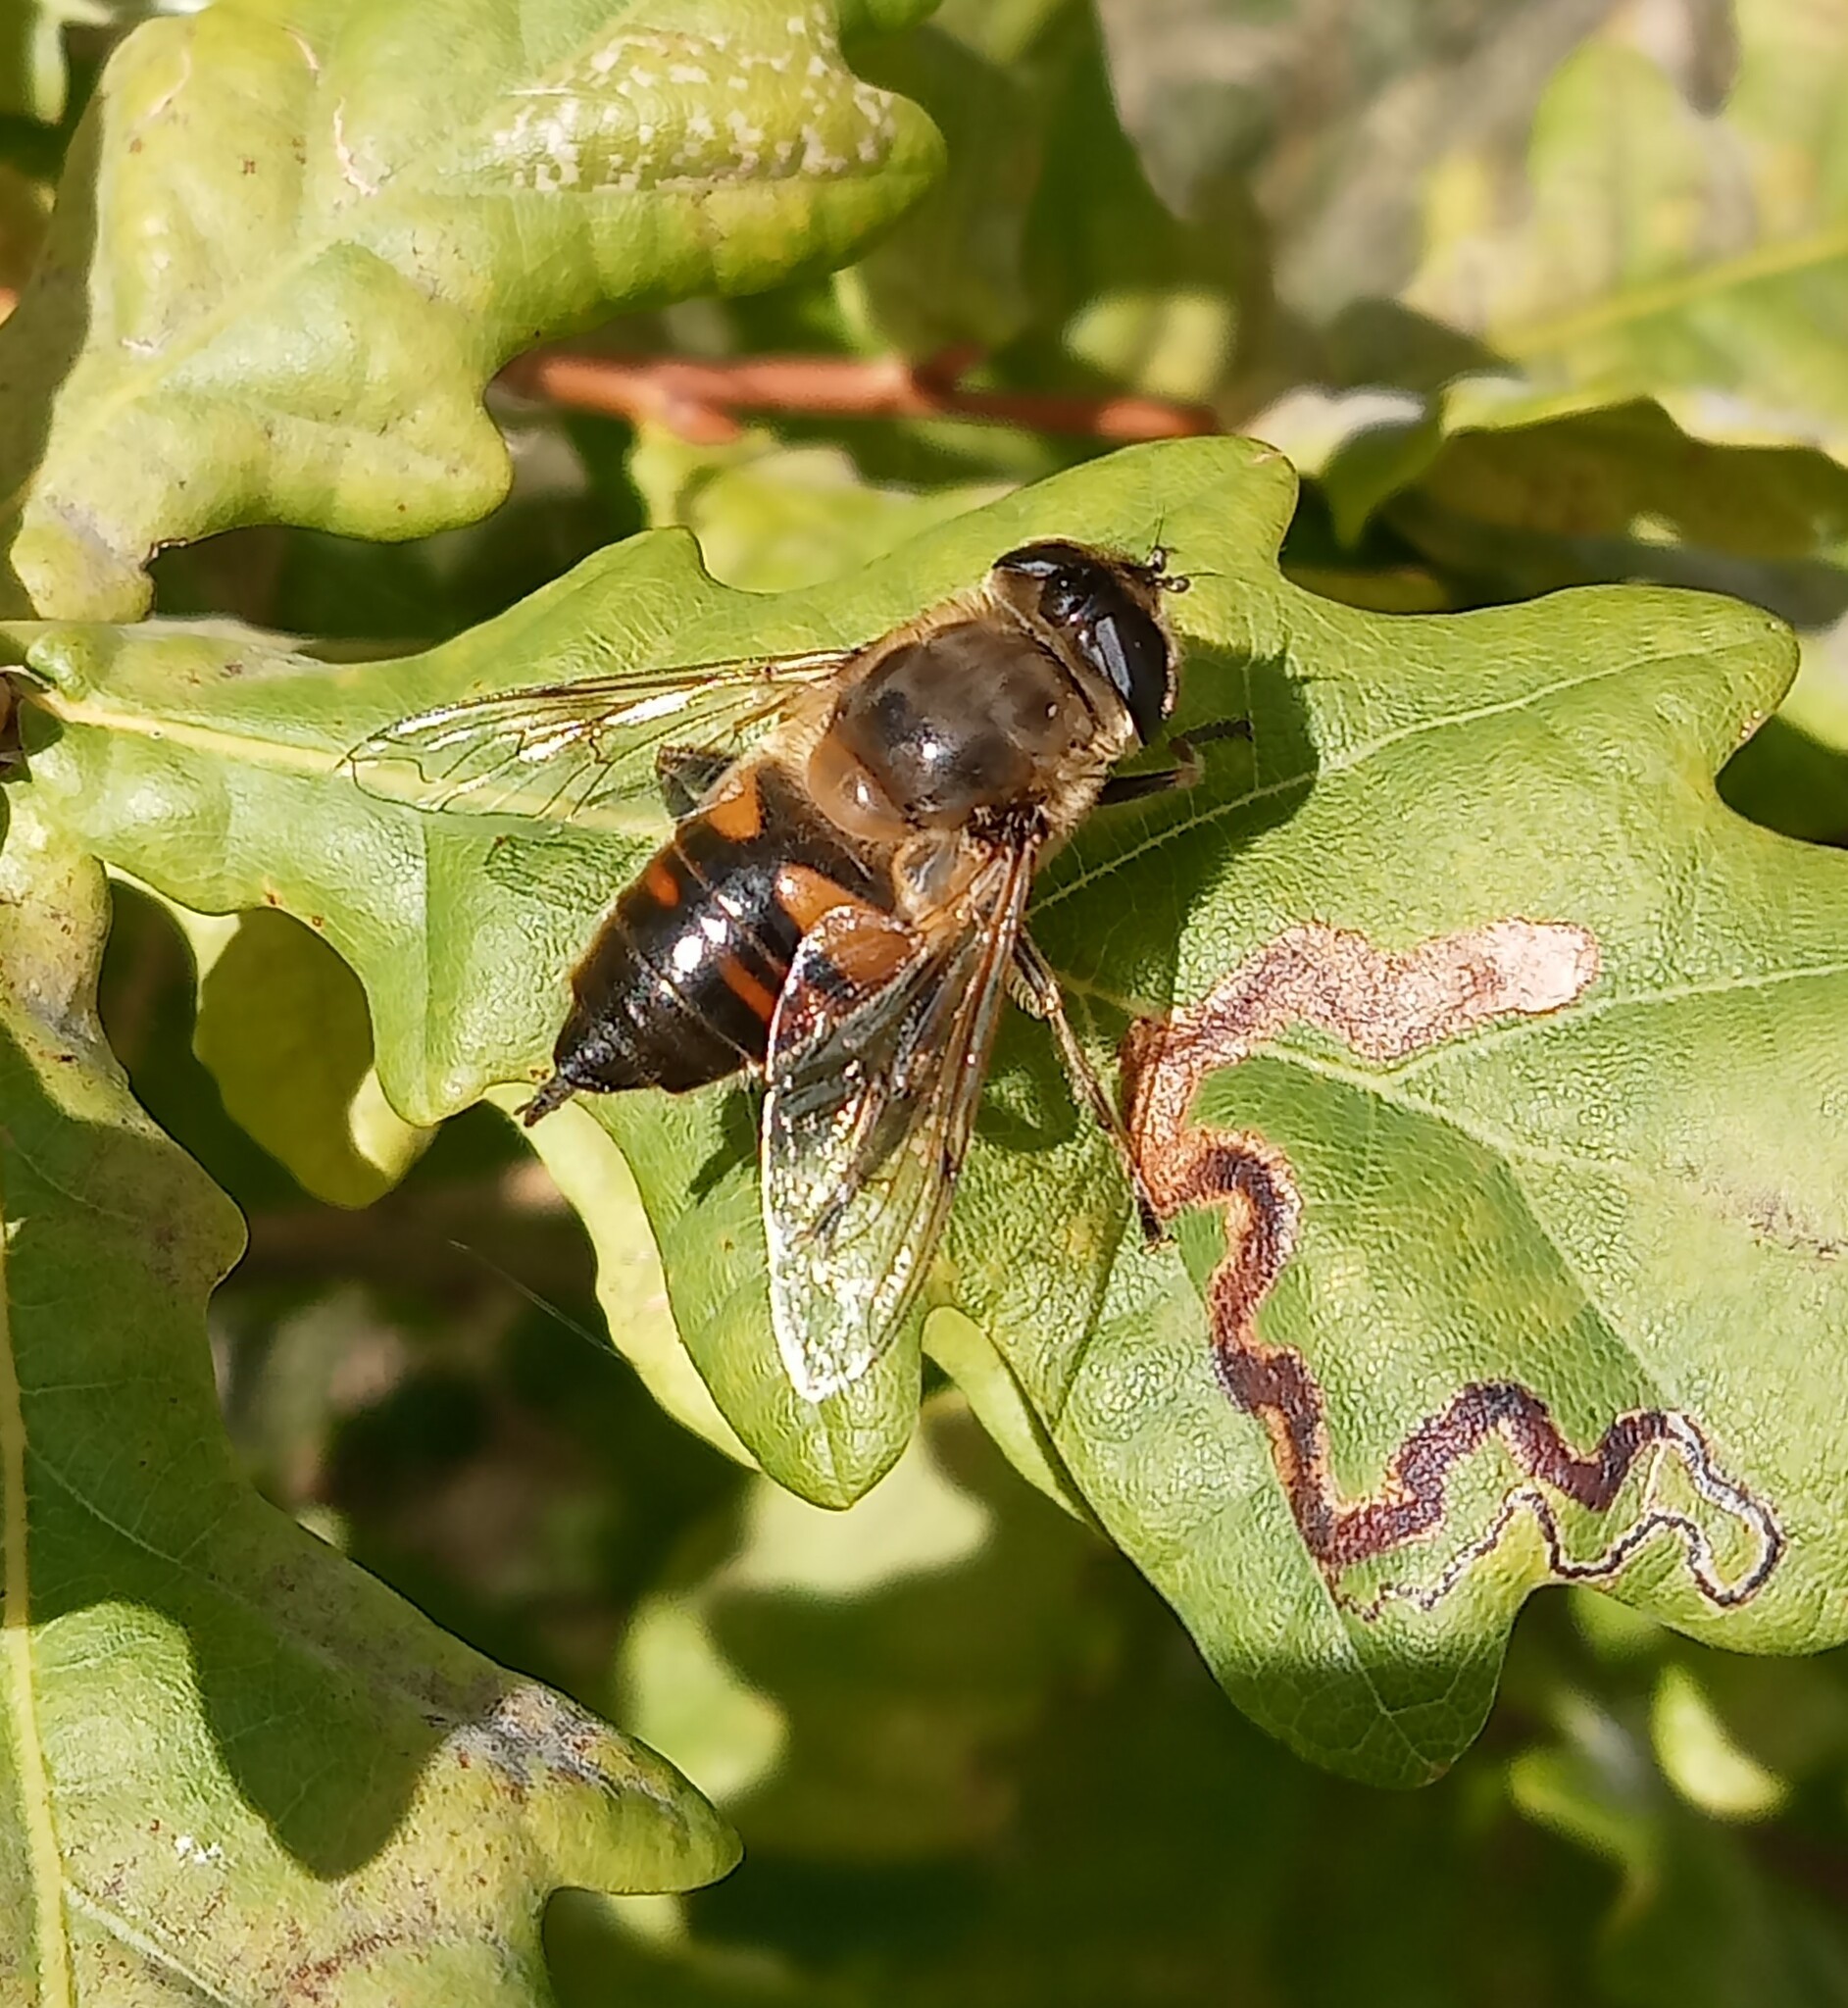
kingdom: Animalia
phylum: Arthropoda
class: Insecta
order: Diptera
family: Syrphidae
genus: Eristalis
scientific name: Eristalis tenax
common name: Drone fly
